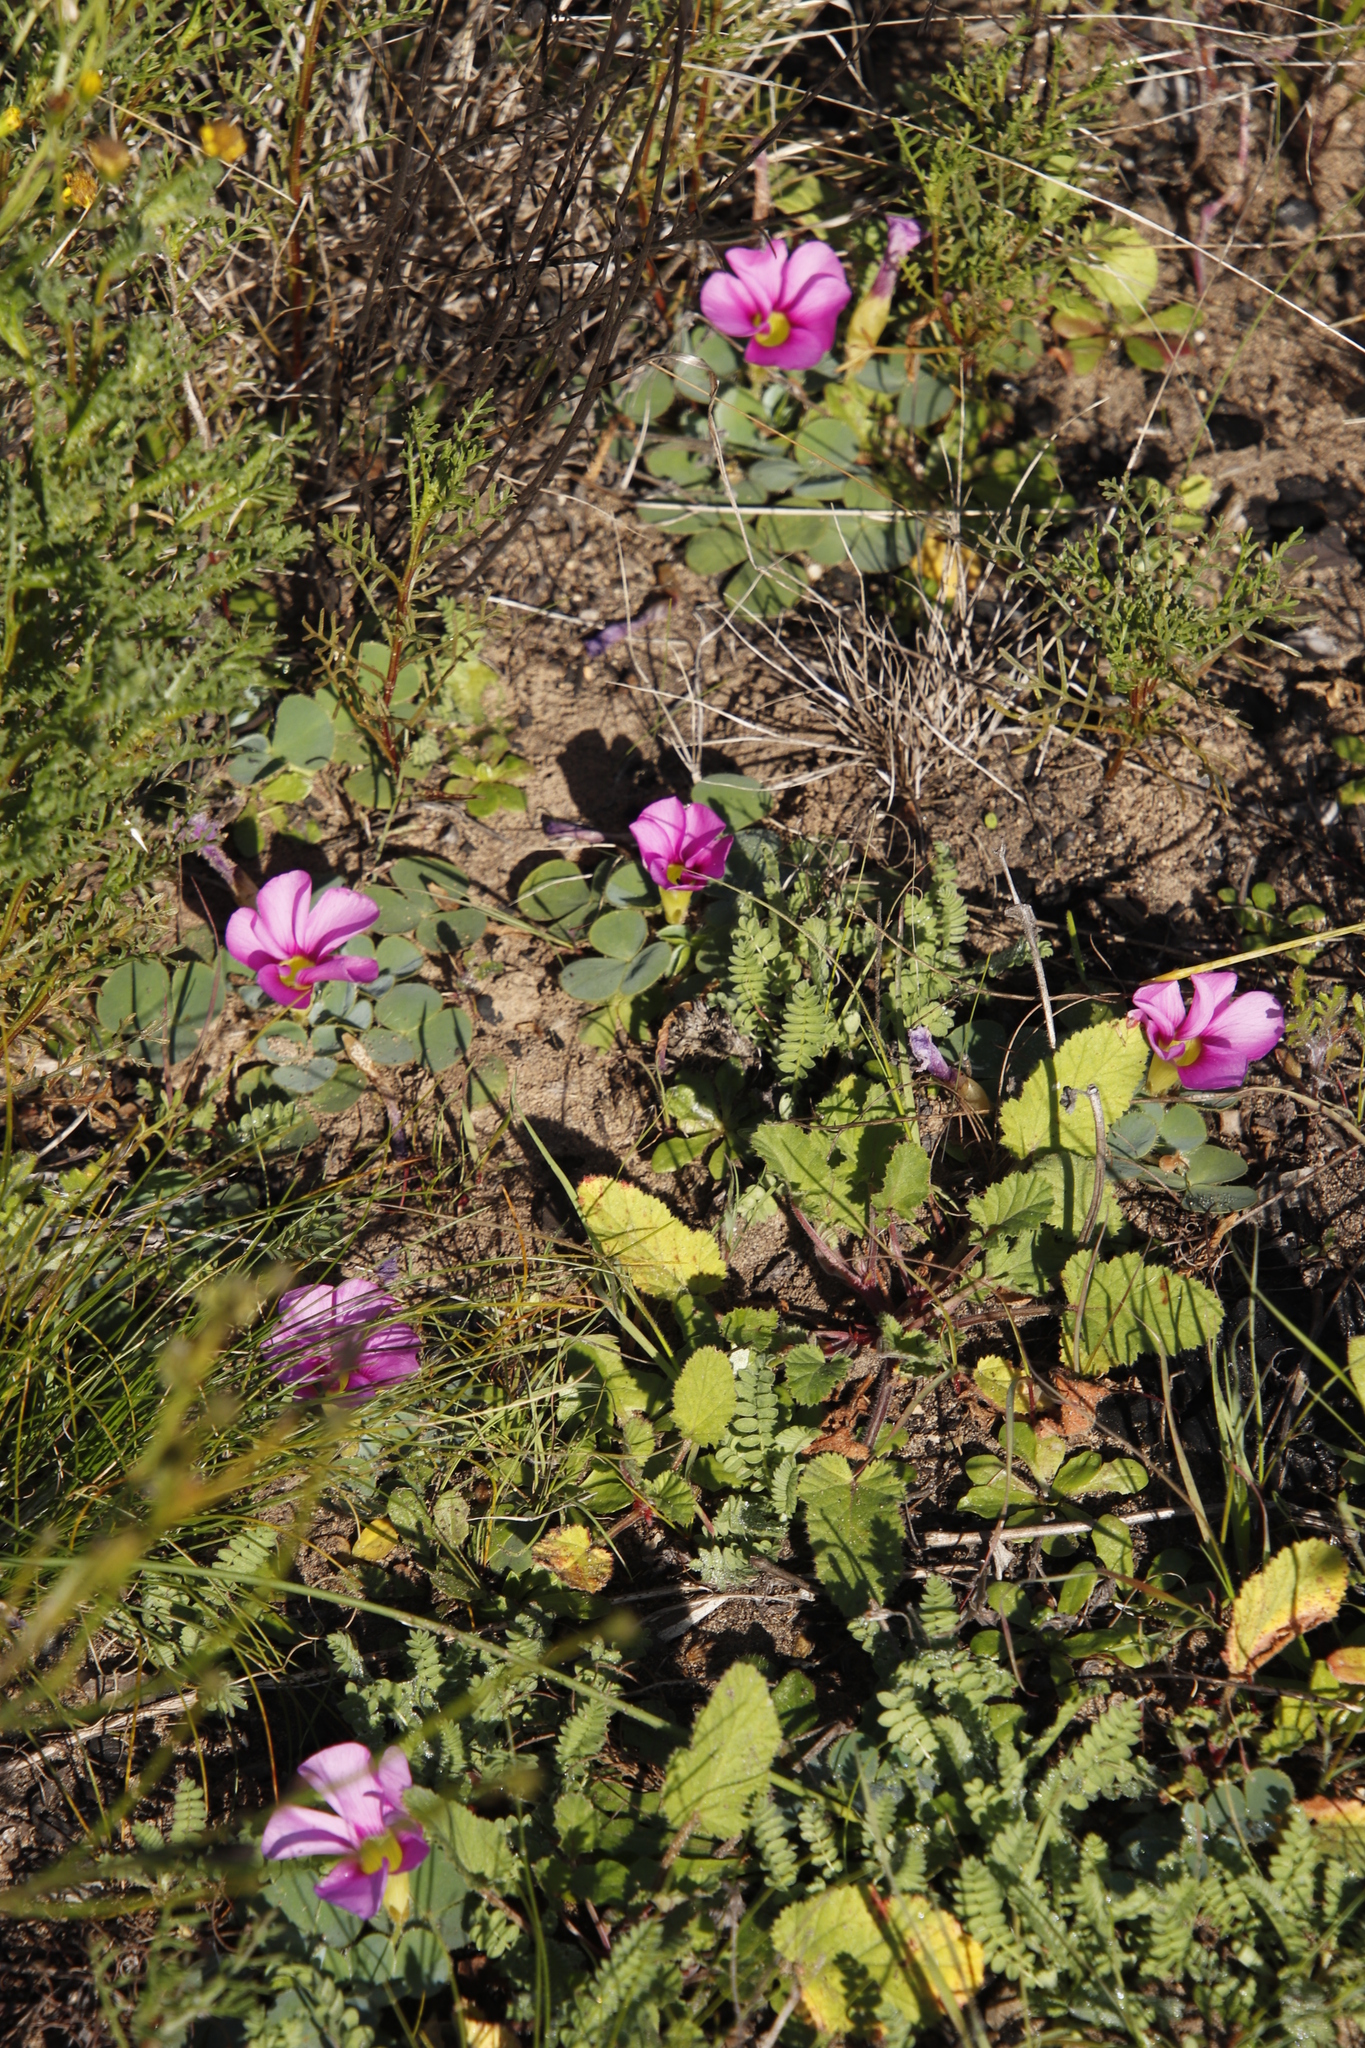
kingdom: Plantae
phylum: Tracheophyta
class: Magnoliopsida
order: Oxalidales
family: Oxalidaceae
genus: Oxalis
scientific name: Oxalis purpurea
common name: Purple woodsorrel
